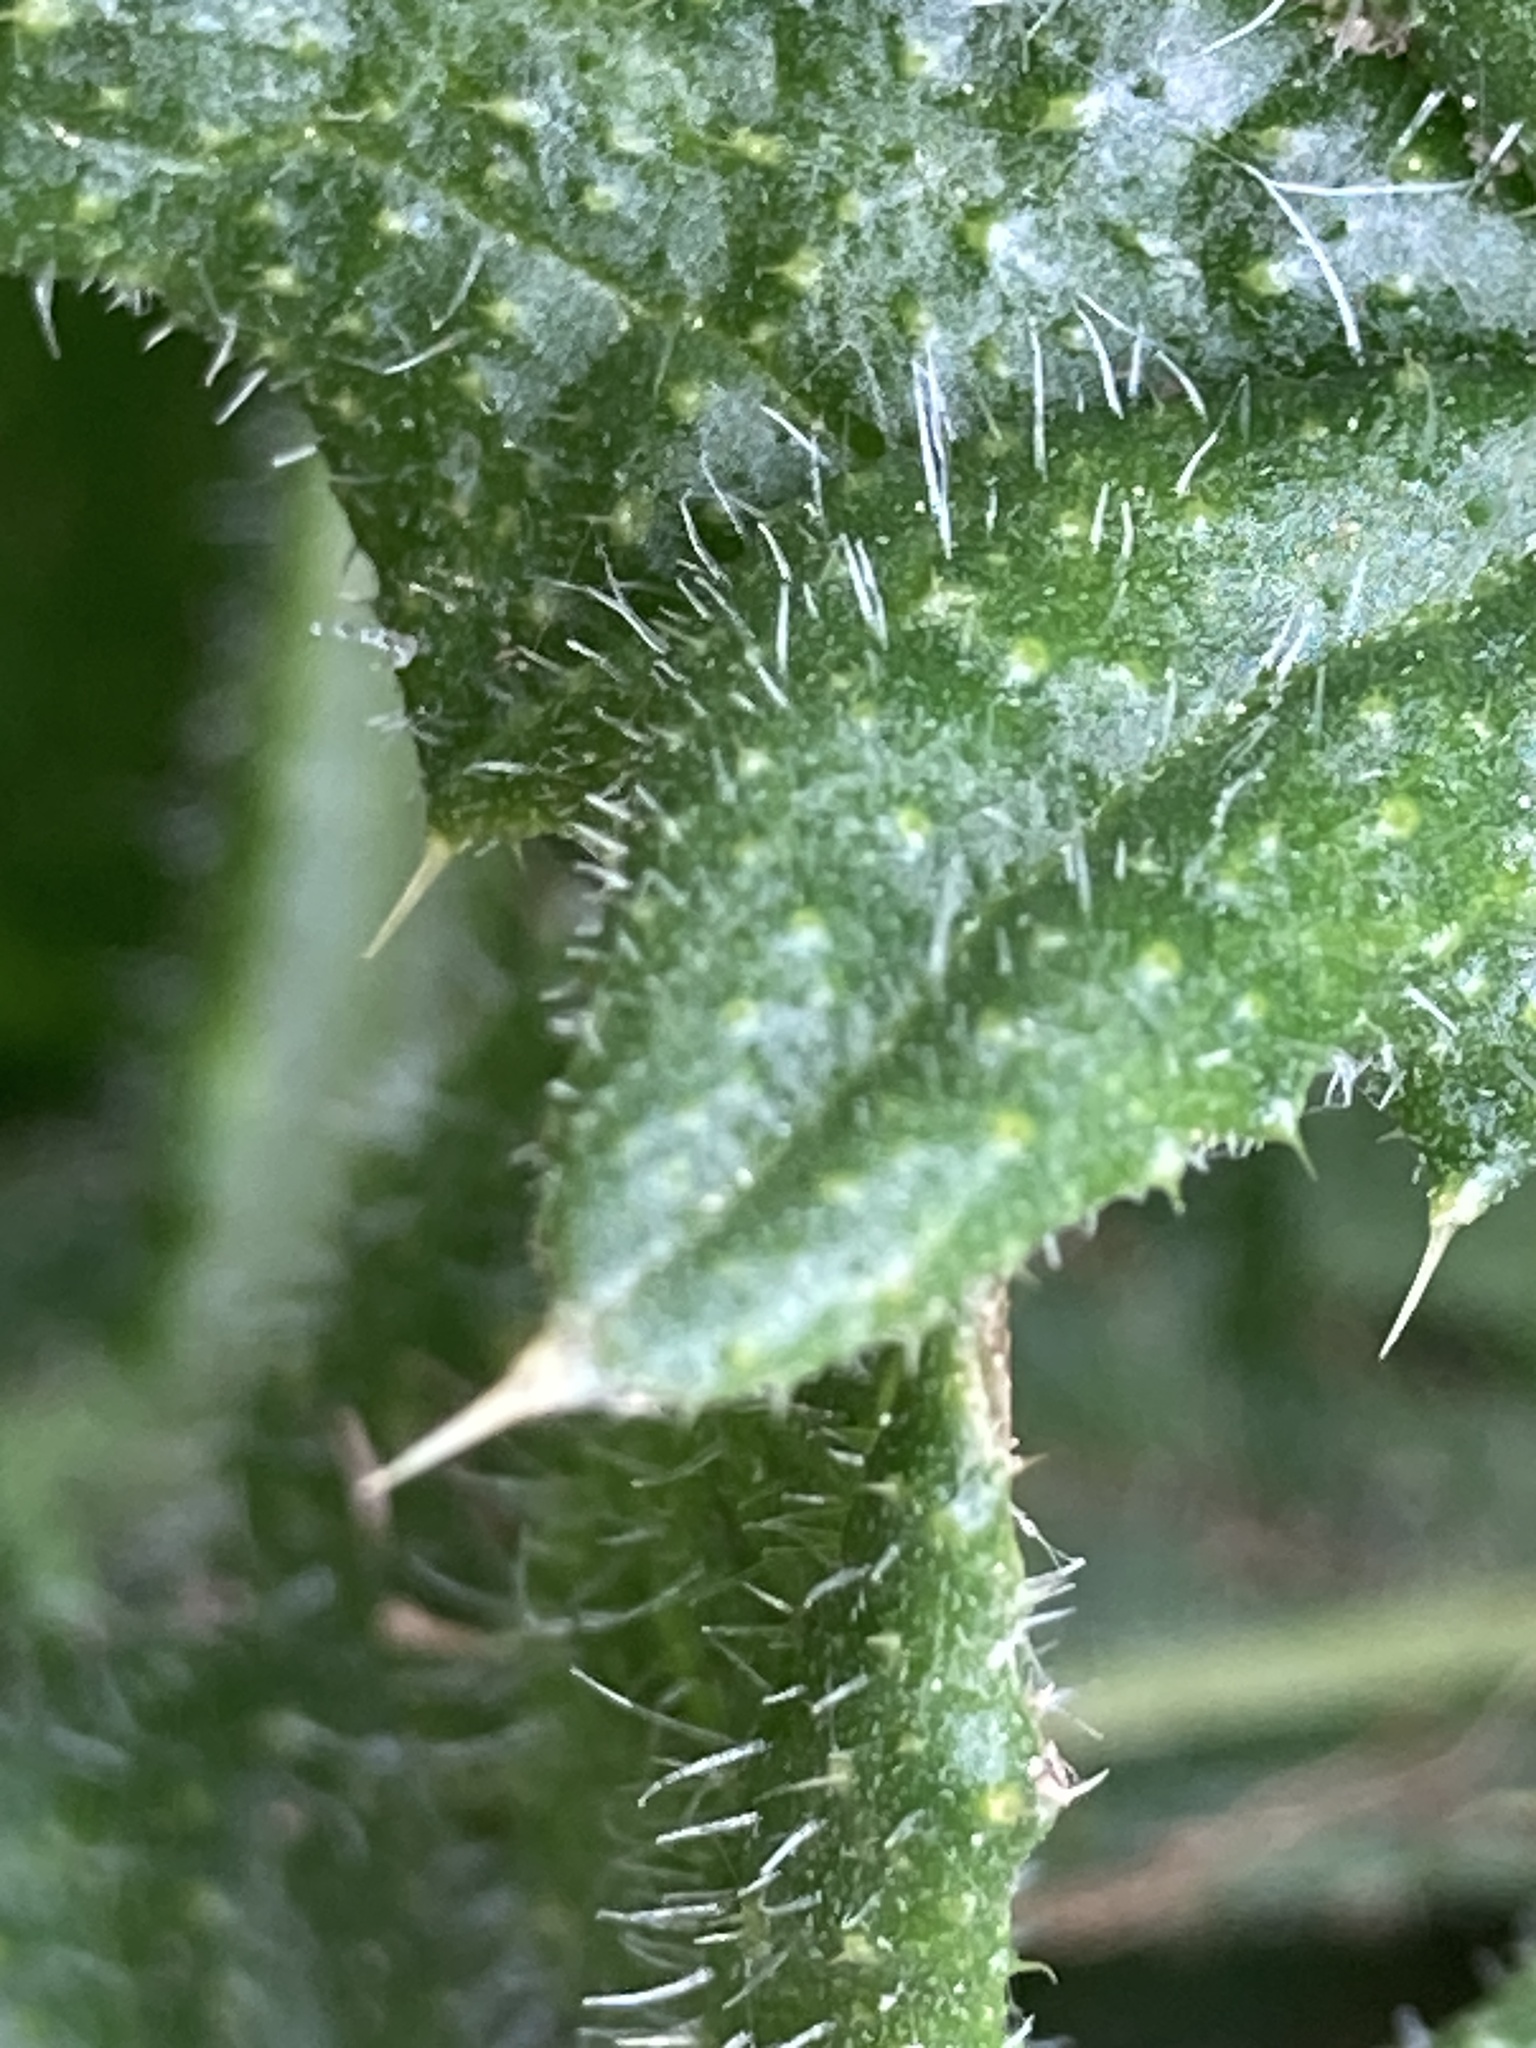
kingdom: Plantae
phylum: Tracheophyta
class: Magnoliopsida
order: Asterales
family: Asteraceae
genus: Cirsium
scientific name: Cirsium vulgare
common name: Bull thistle
